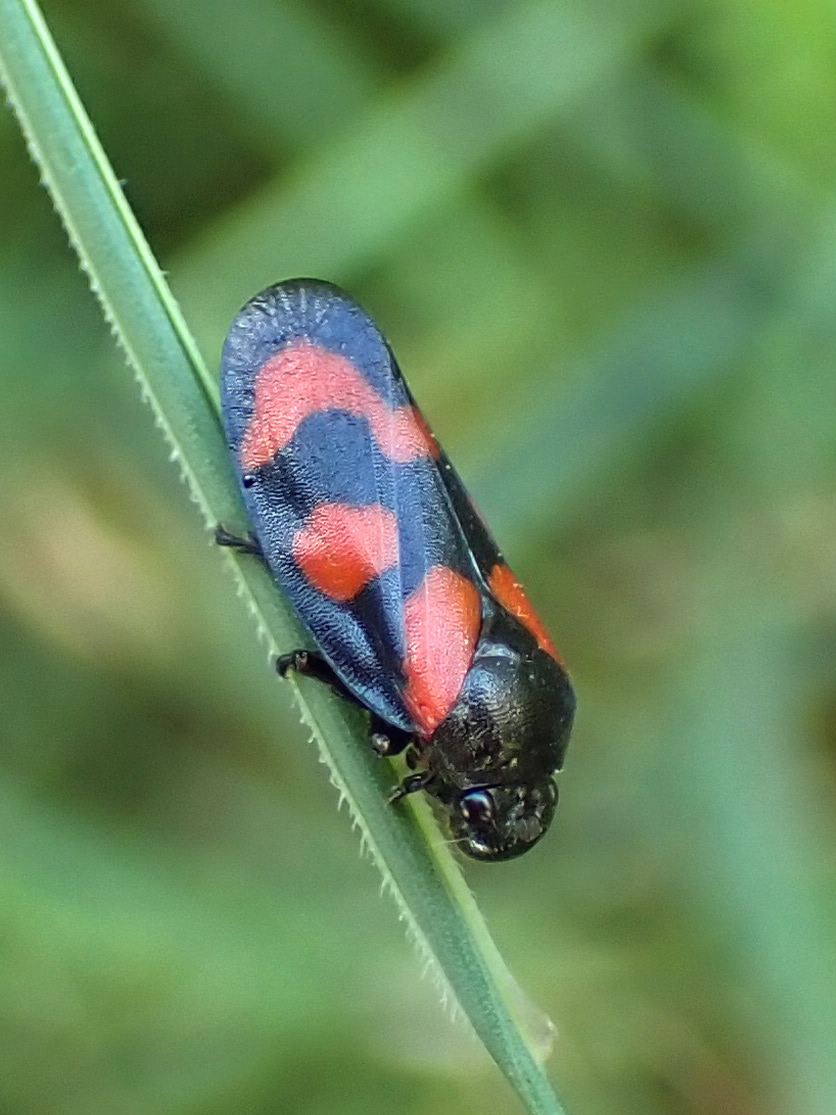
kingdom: Animalia
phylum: Arthropoda
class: Insecta
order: Hemiptera
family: Cercopidae
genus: Cercopis
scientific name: Cercopis vulnerata
